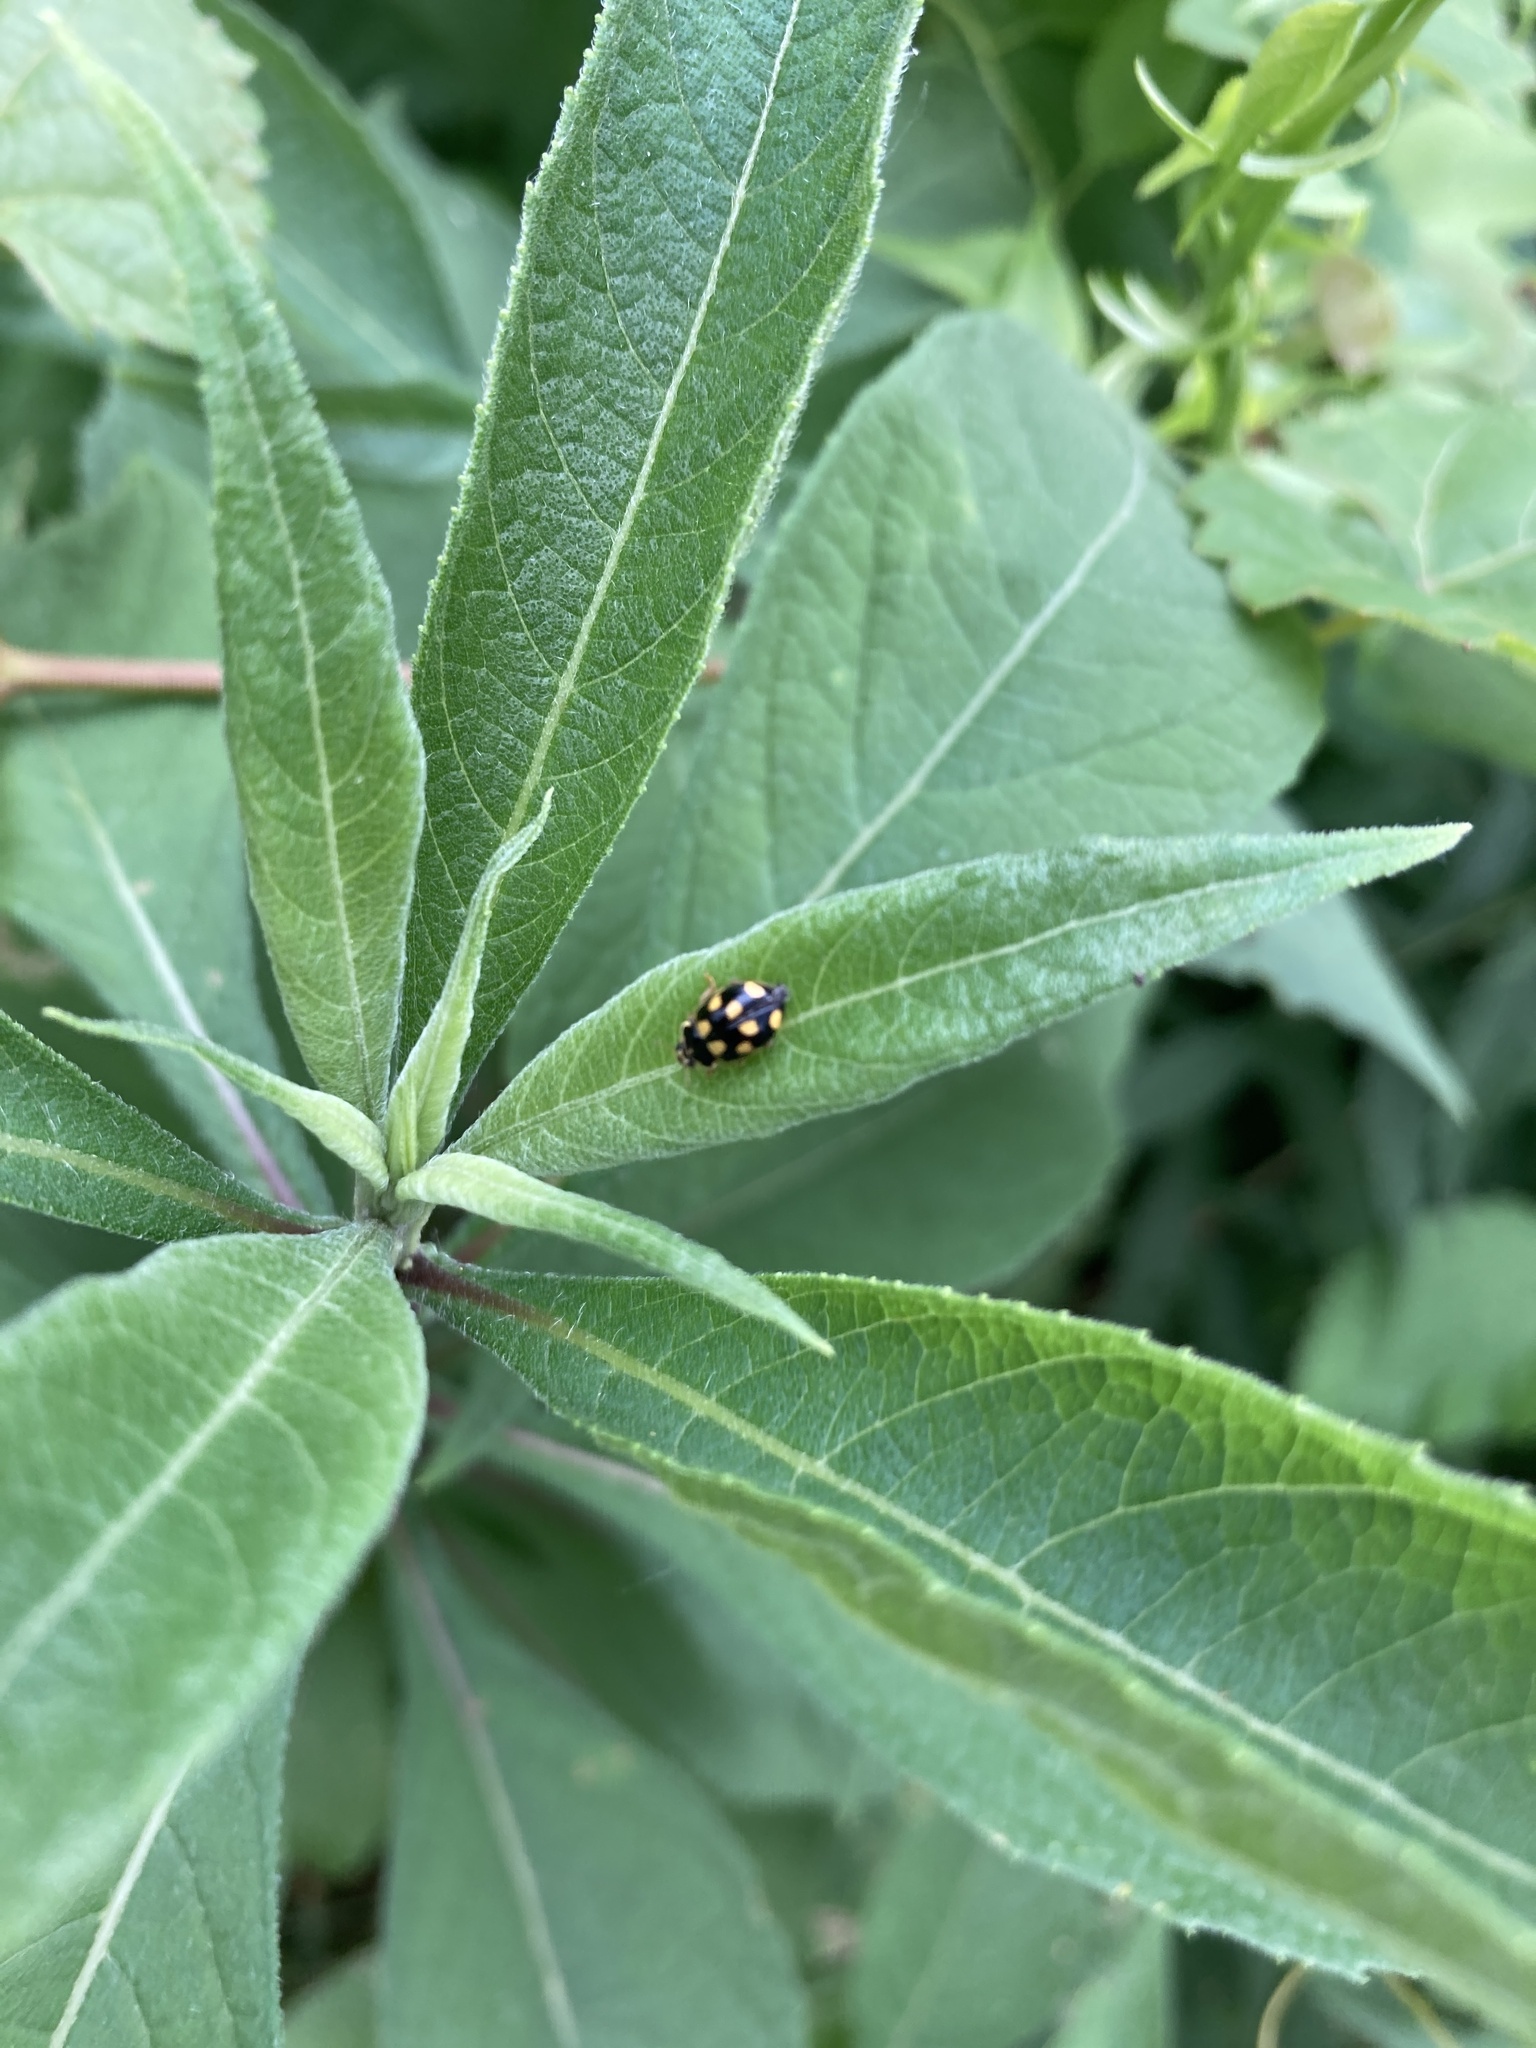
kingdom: Animalia
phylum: Arthropoda
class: Insecta
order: Coleoptera
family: Coccinellidae
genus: Propylaea
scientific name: Propylaea quatuordecimpunctata
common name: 14-spotted ladybird beetle
